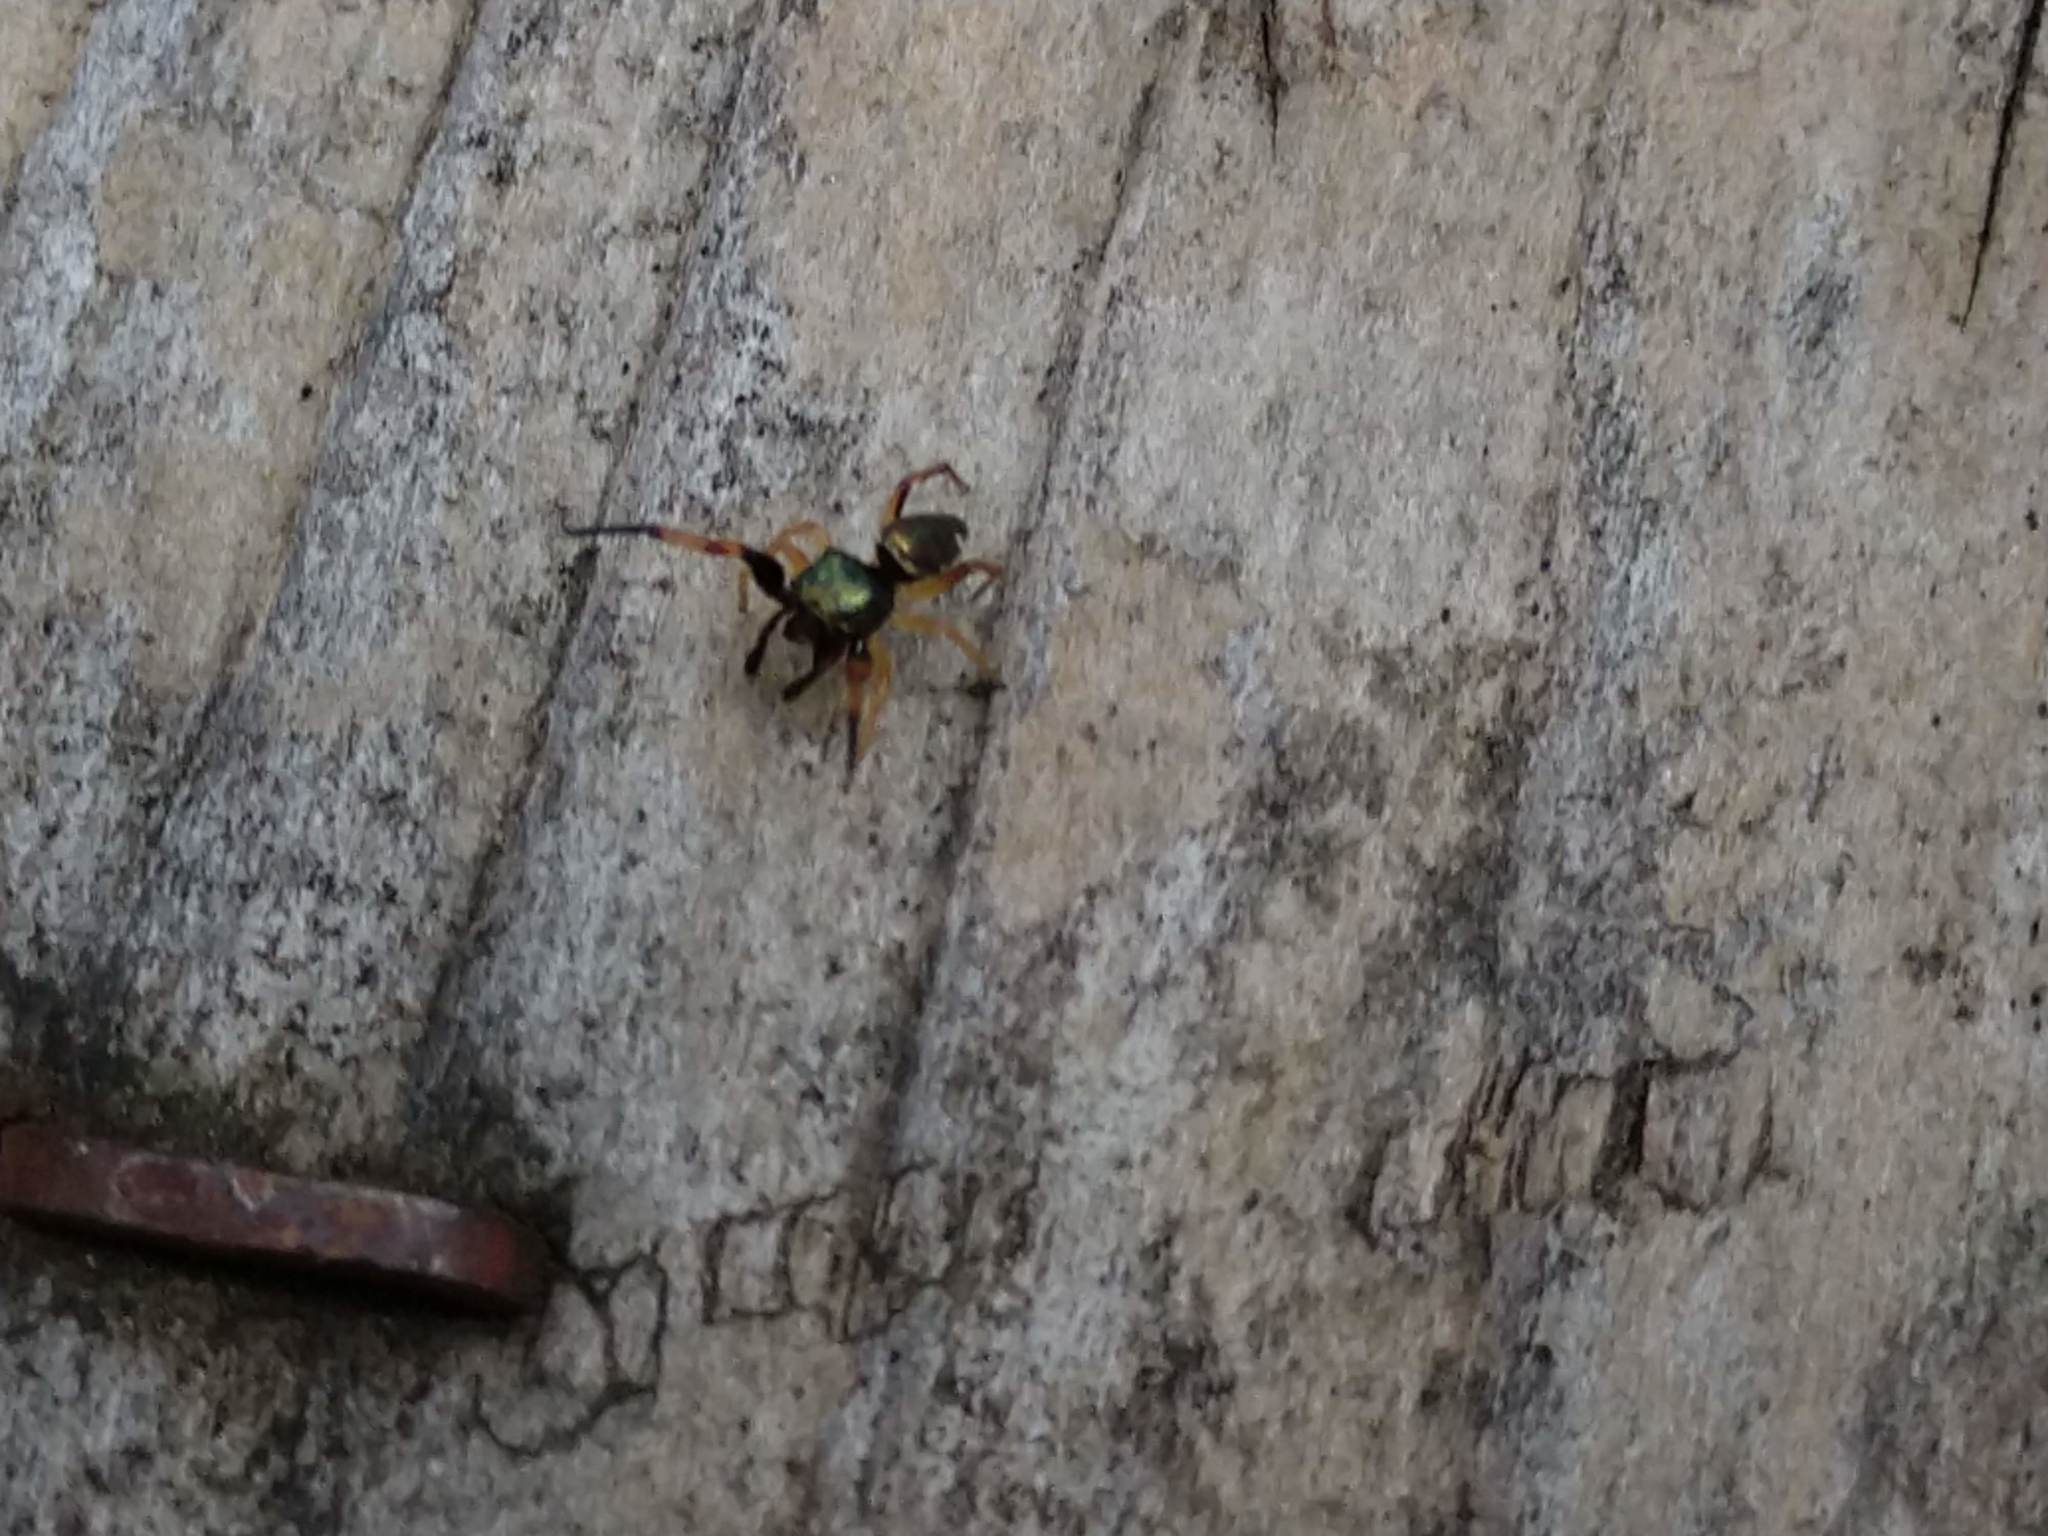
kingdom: Animalia
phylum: Arthropoda
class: Arachnida
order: Araneae
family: Salticidae
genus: Zygoballus
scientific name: Zygoballus rufipes
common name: Jumping spiders
